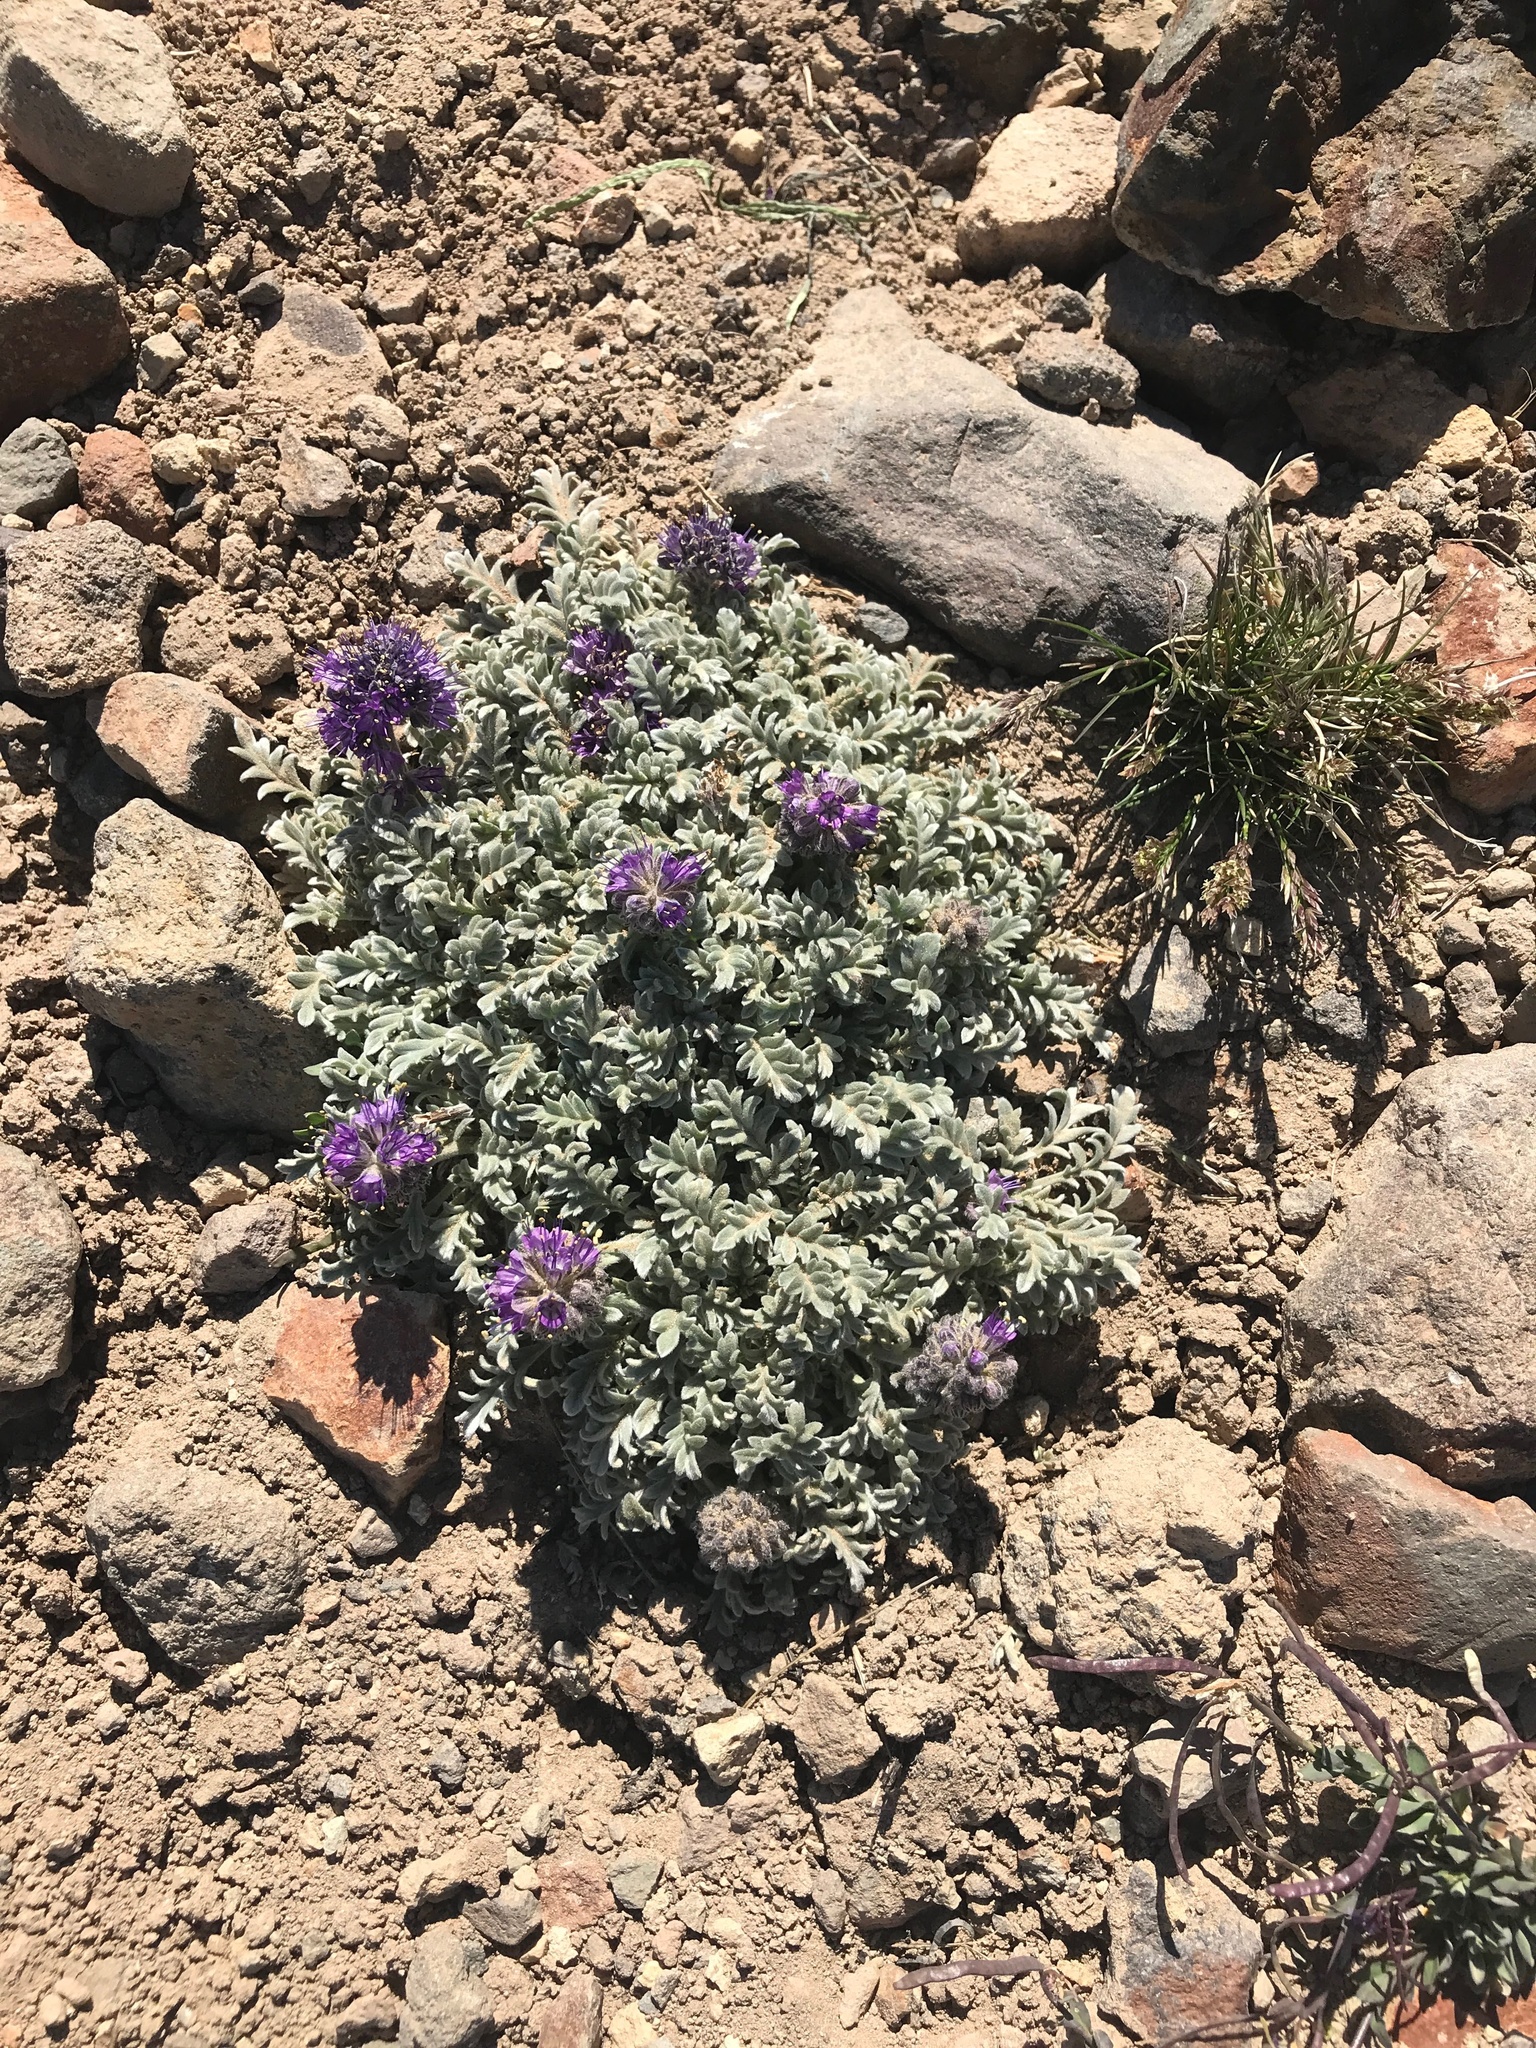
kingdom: Plantae
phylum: Tracheophyta
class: Magnoliopsida
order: Boraginales
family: Hydrophyllaceae
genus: Phacelia
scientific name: Phacelia sericea
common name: Silky phacelia
